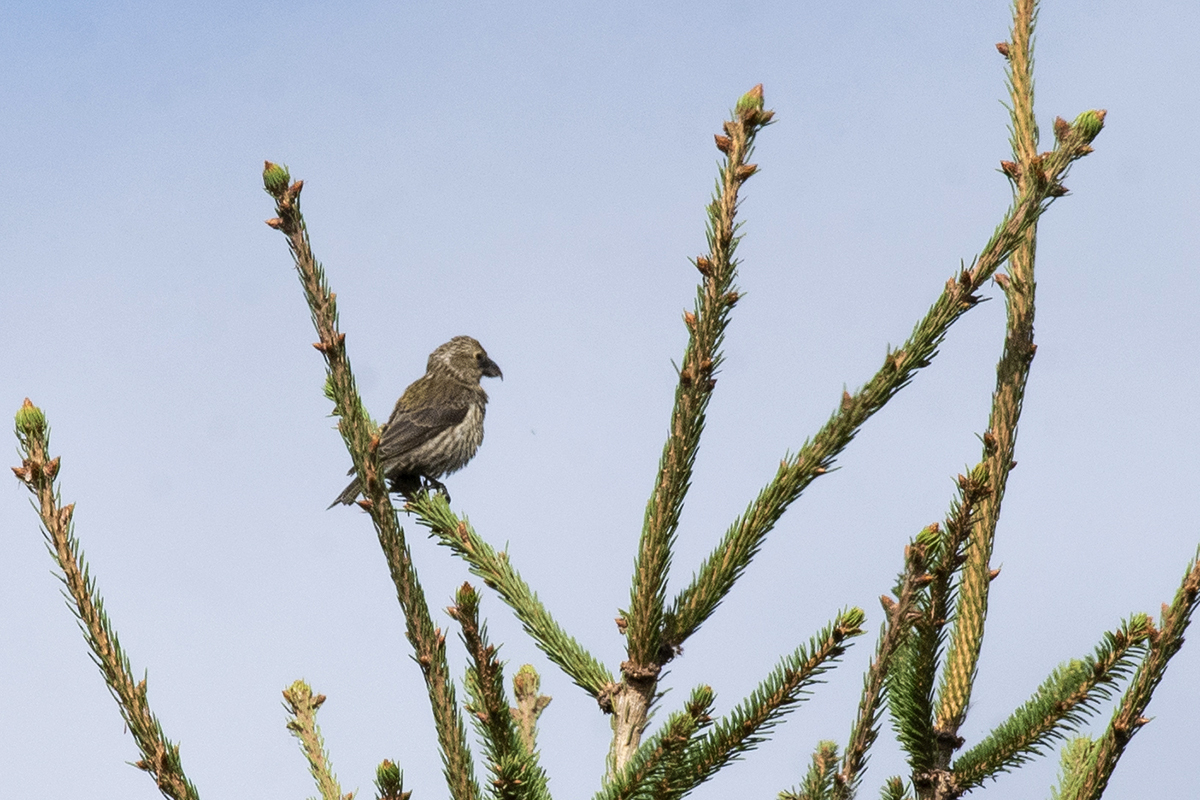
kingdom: Animalia
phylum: Chordata
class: Aves
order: Passeriformes
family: Fringillidae
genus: Loxia
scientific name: Loxia curvirostra
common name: Red crossbill
